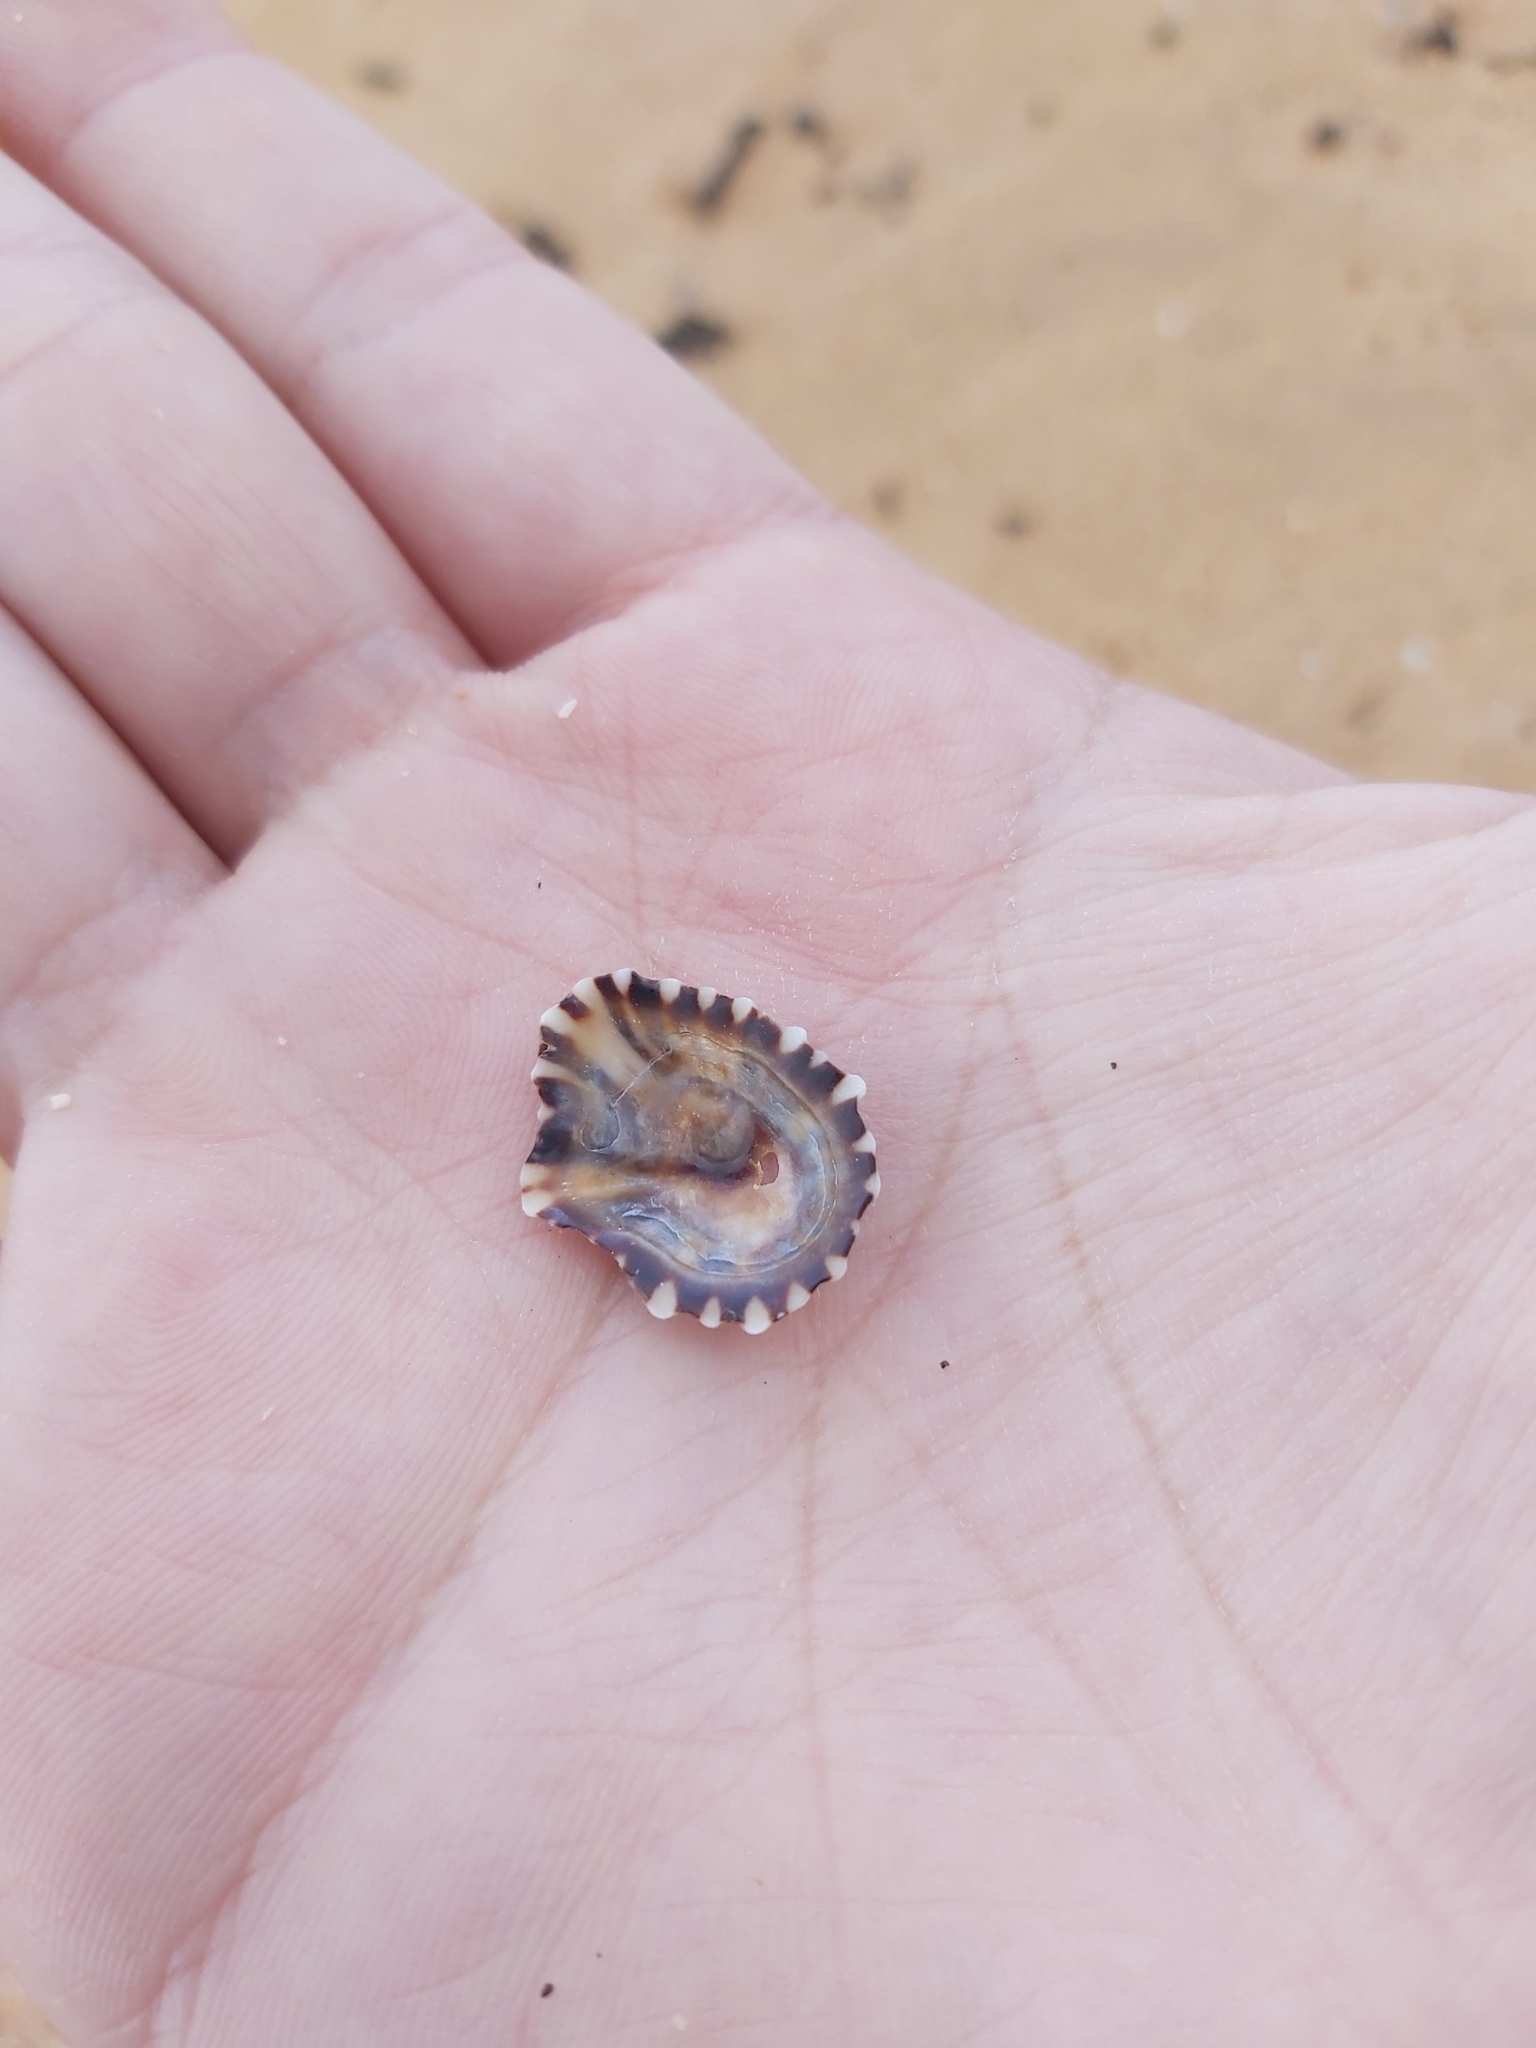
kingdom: Animalia
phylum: Mollusca
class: Gastropoda
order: Siphonariida
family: Siphonariidae
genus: Siphonaria
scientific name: Siphonaria denticulata
